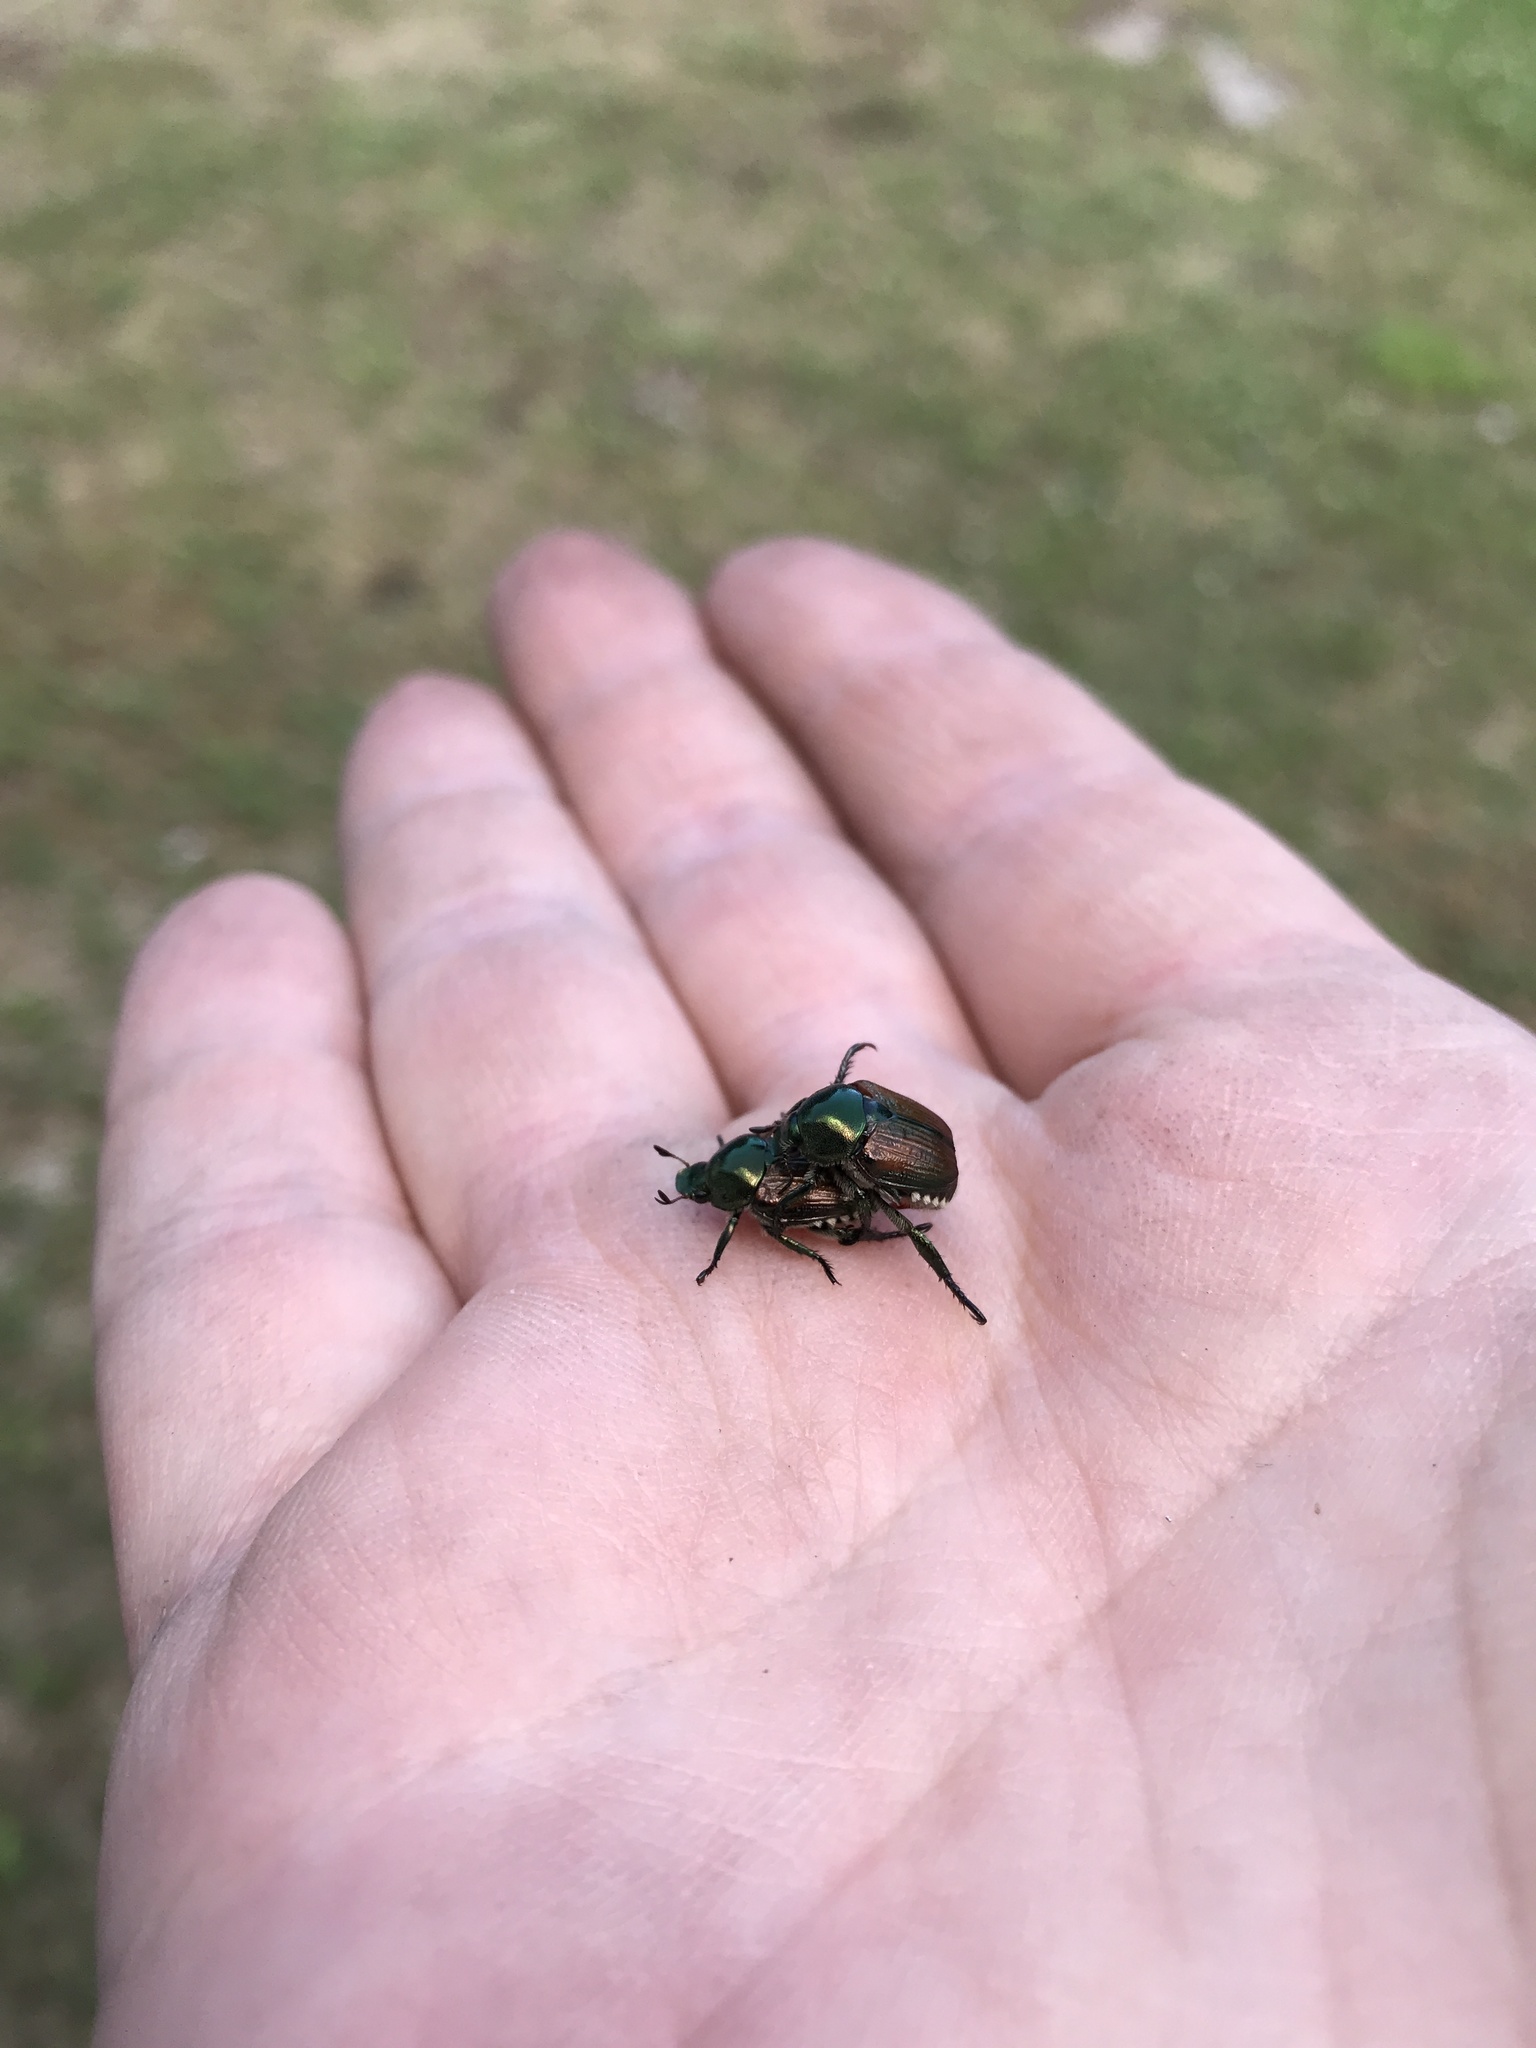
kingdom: Animalia
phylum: Arthropoda
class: Insecta
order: Coleoptera
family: Scarabaeidae
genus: Popillia
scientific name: Popillia japonica
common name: Japanese beetle
